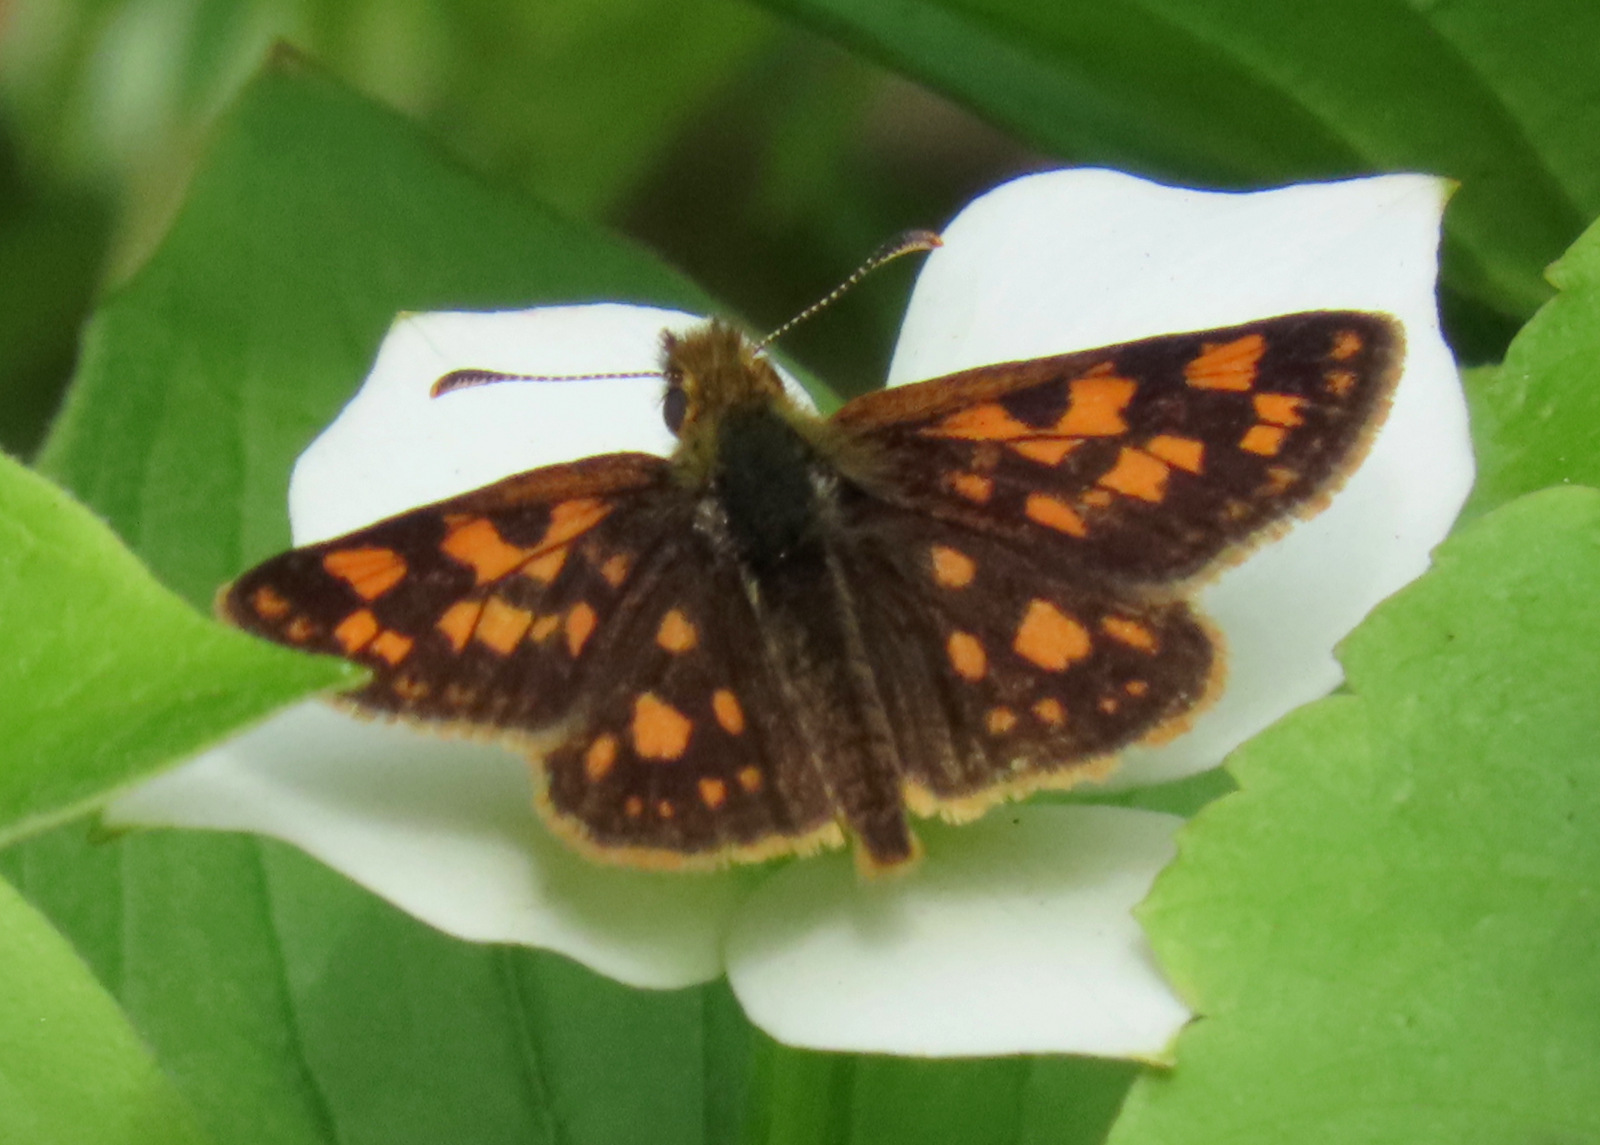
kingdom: Animalia
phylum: Arthropoda
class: Insecta
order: Lepidoptera
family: Hesperiidae
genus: Carterocephalus
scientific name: Carterocephalus mandan
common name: Arctic skipperling
